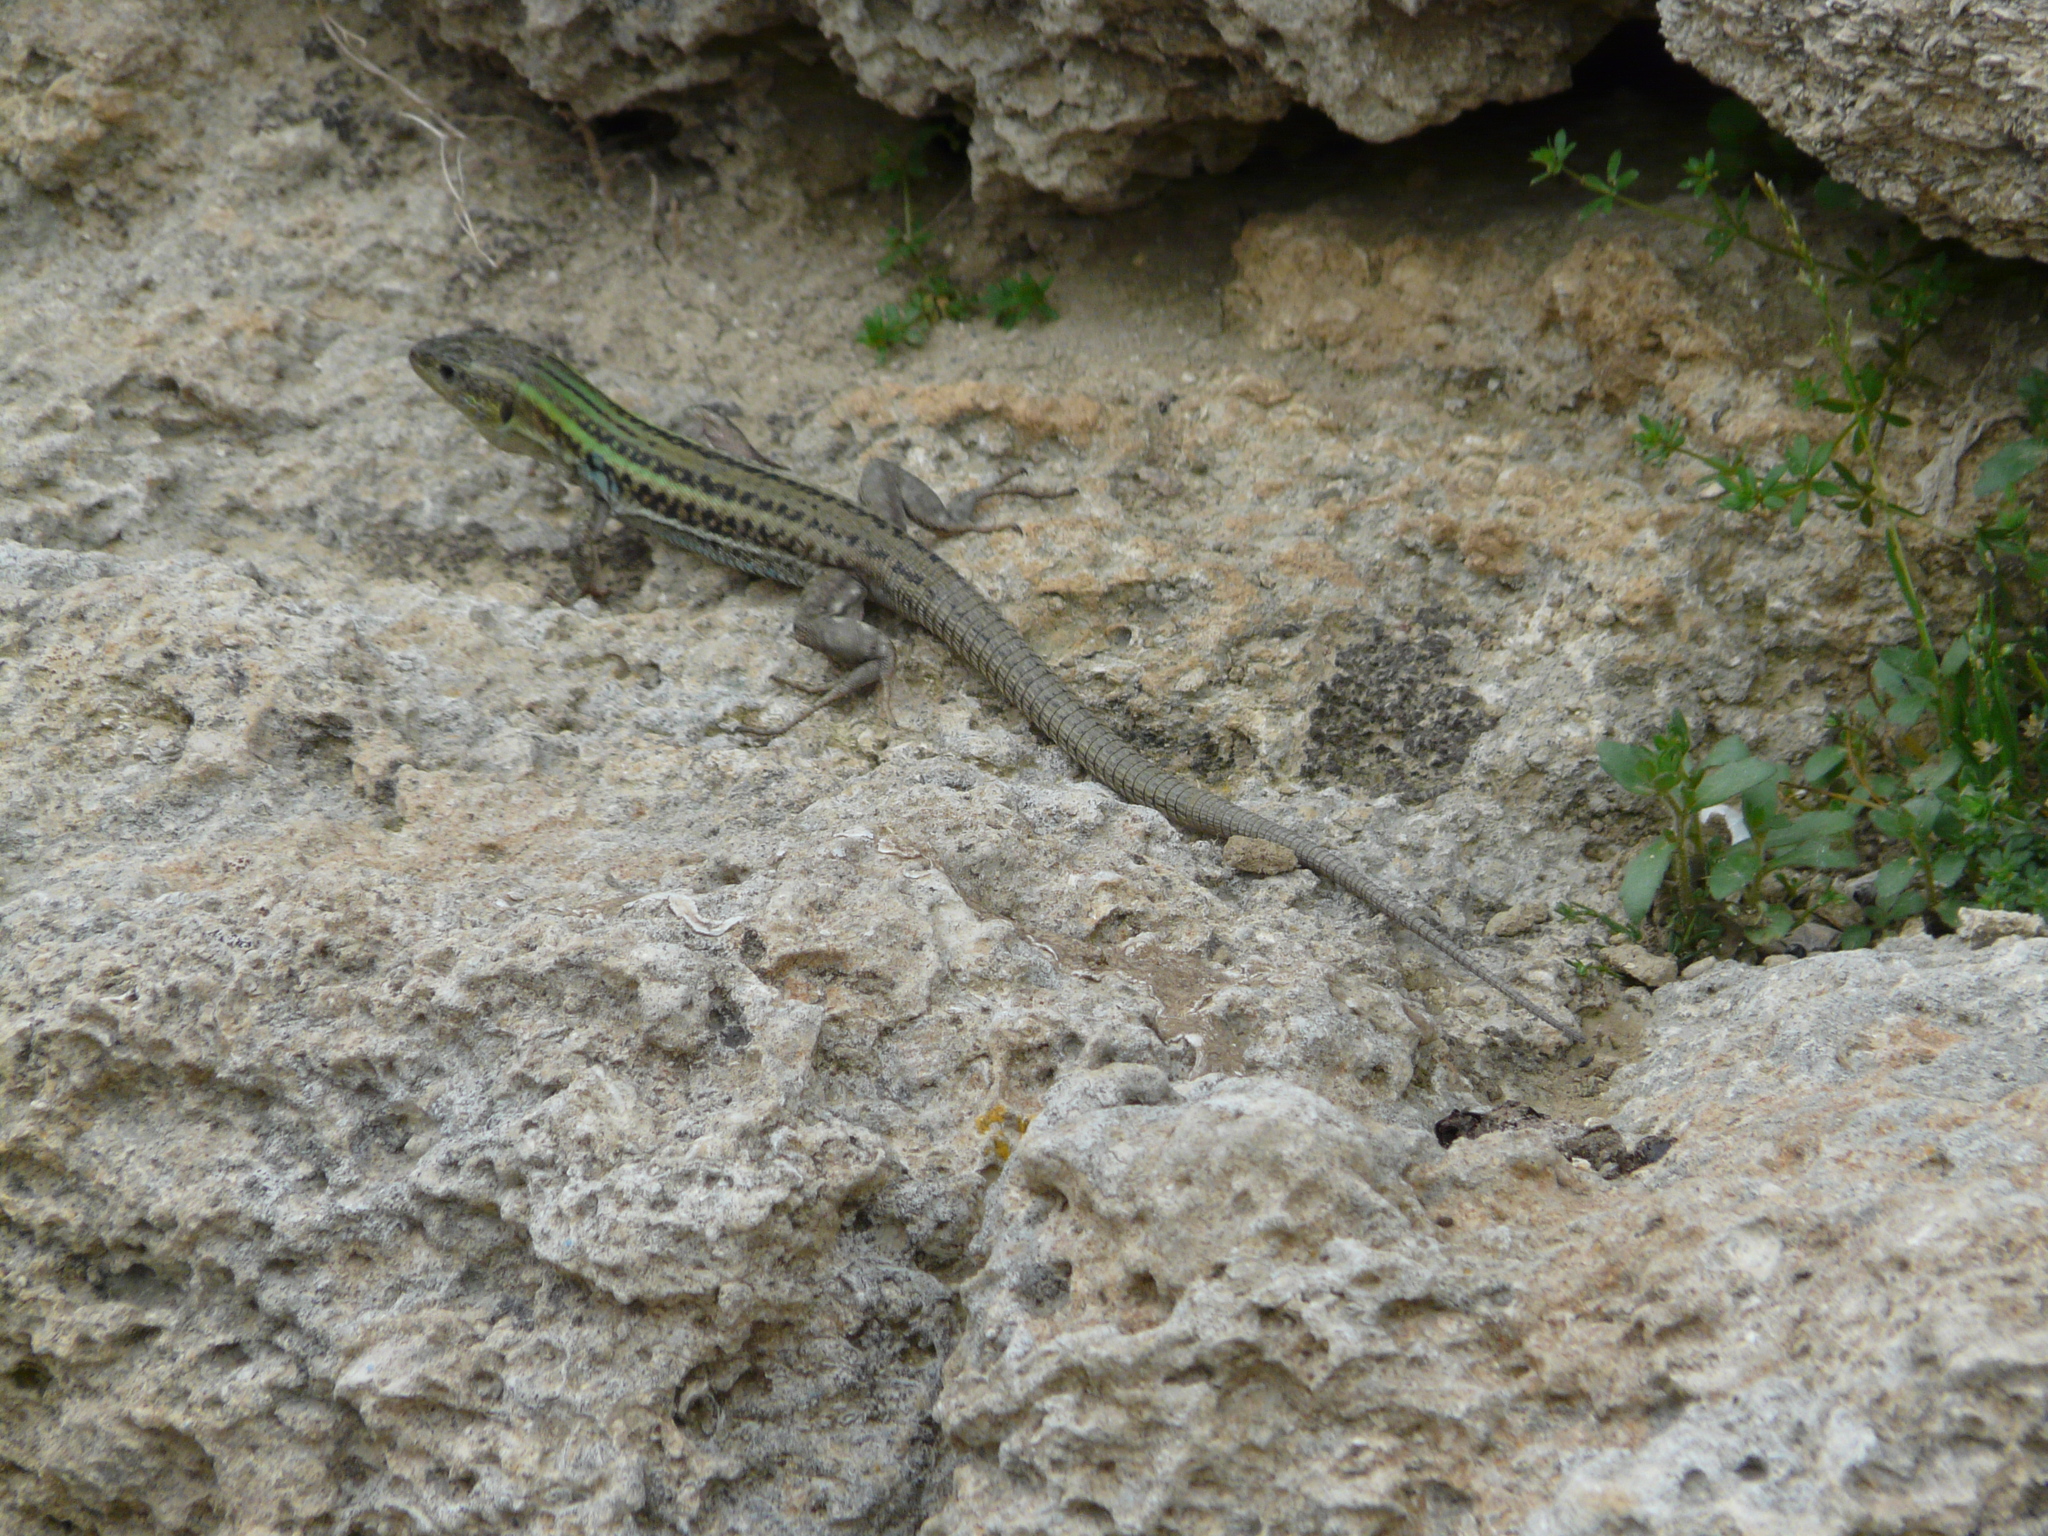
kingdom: Animalia
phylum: Chordata
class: Squamata
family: Lacertidae
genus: Podarcis
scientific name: Podarcis peloponnesiacus
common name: Peloponnese wall lizard
